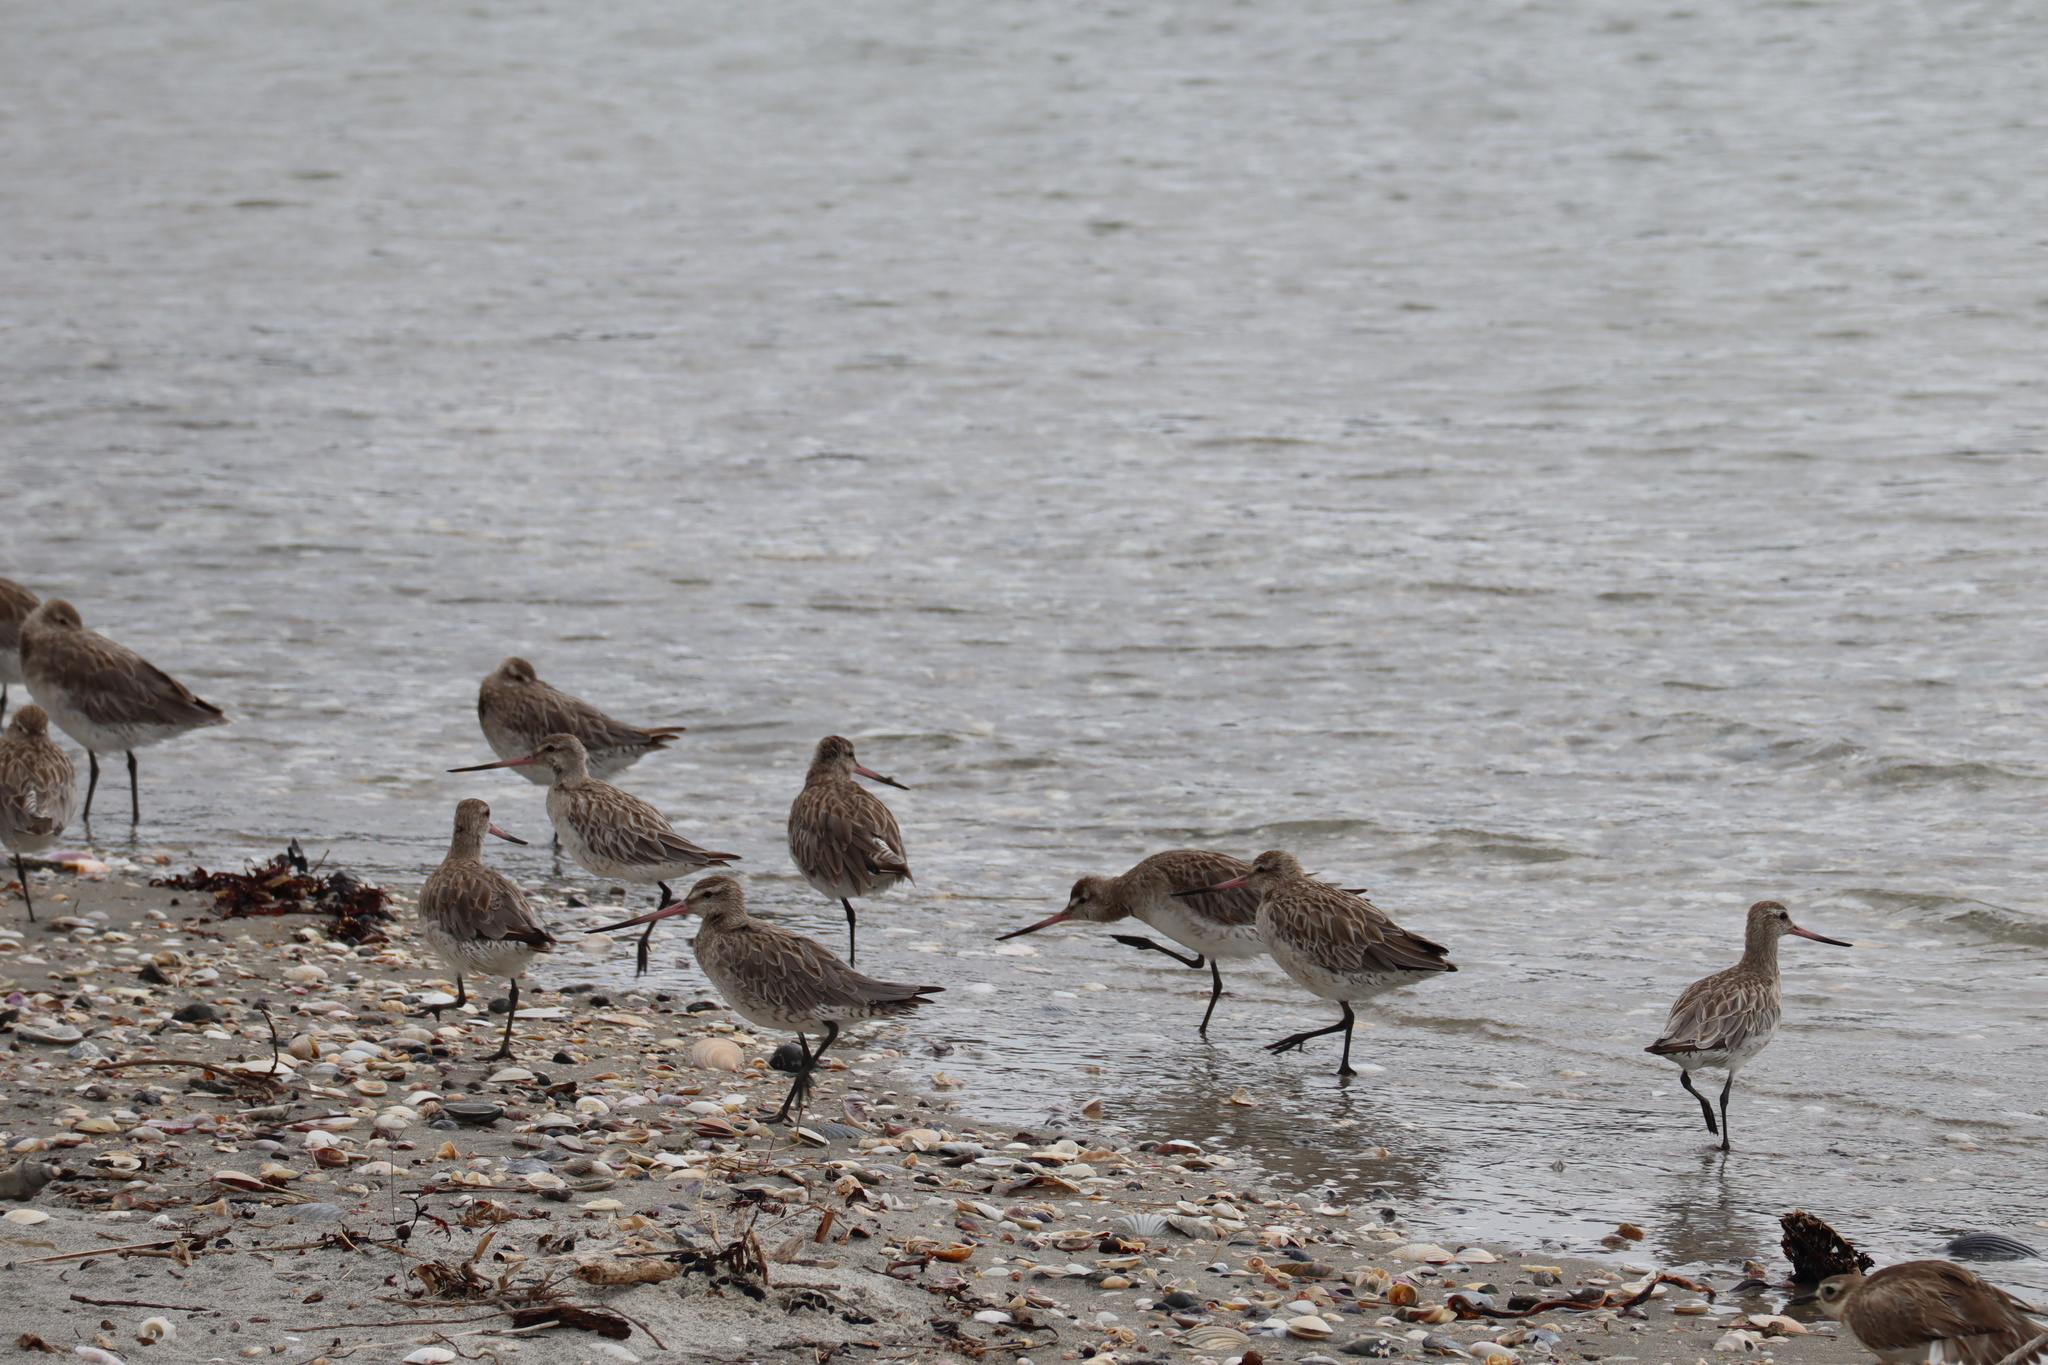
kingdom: Animalia
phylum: Chordata
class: Aves
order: Charadriiformes
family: Scolopacidae
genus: Limosa
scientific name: Limosa lapponica
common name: Bar-tailed godwit
